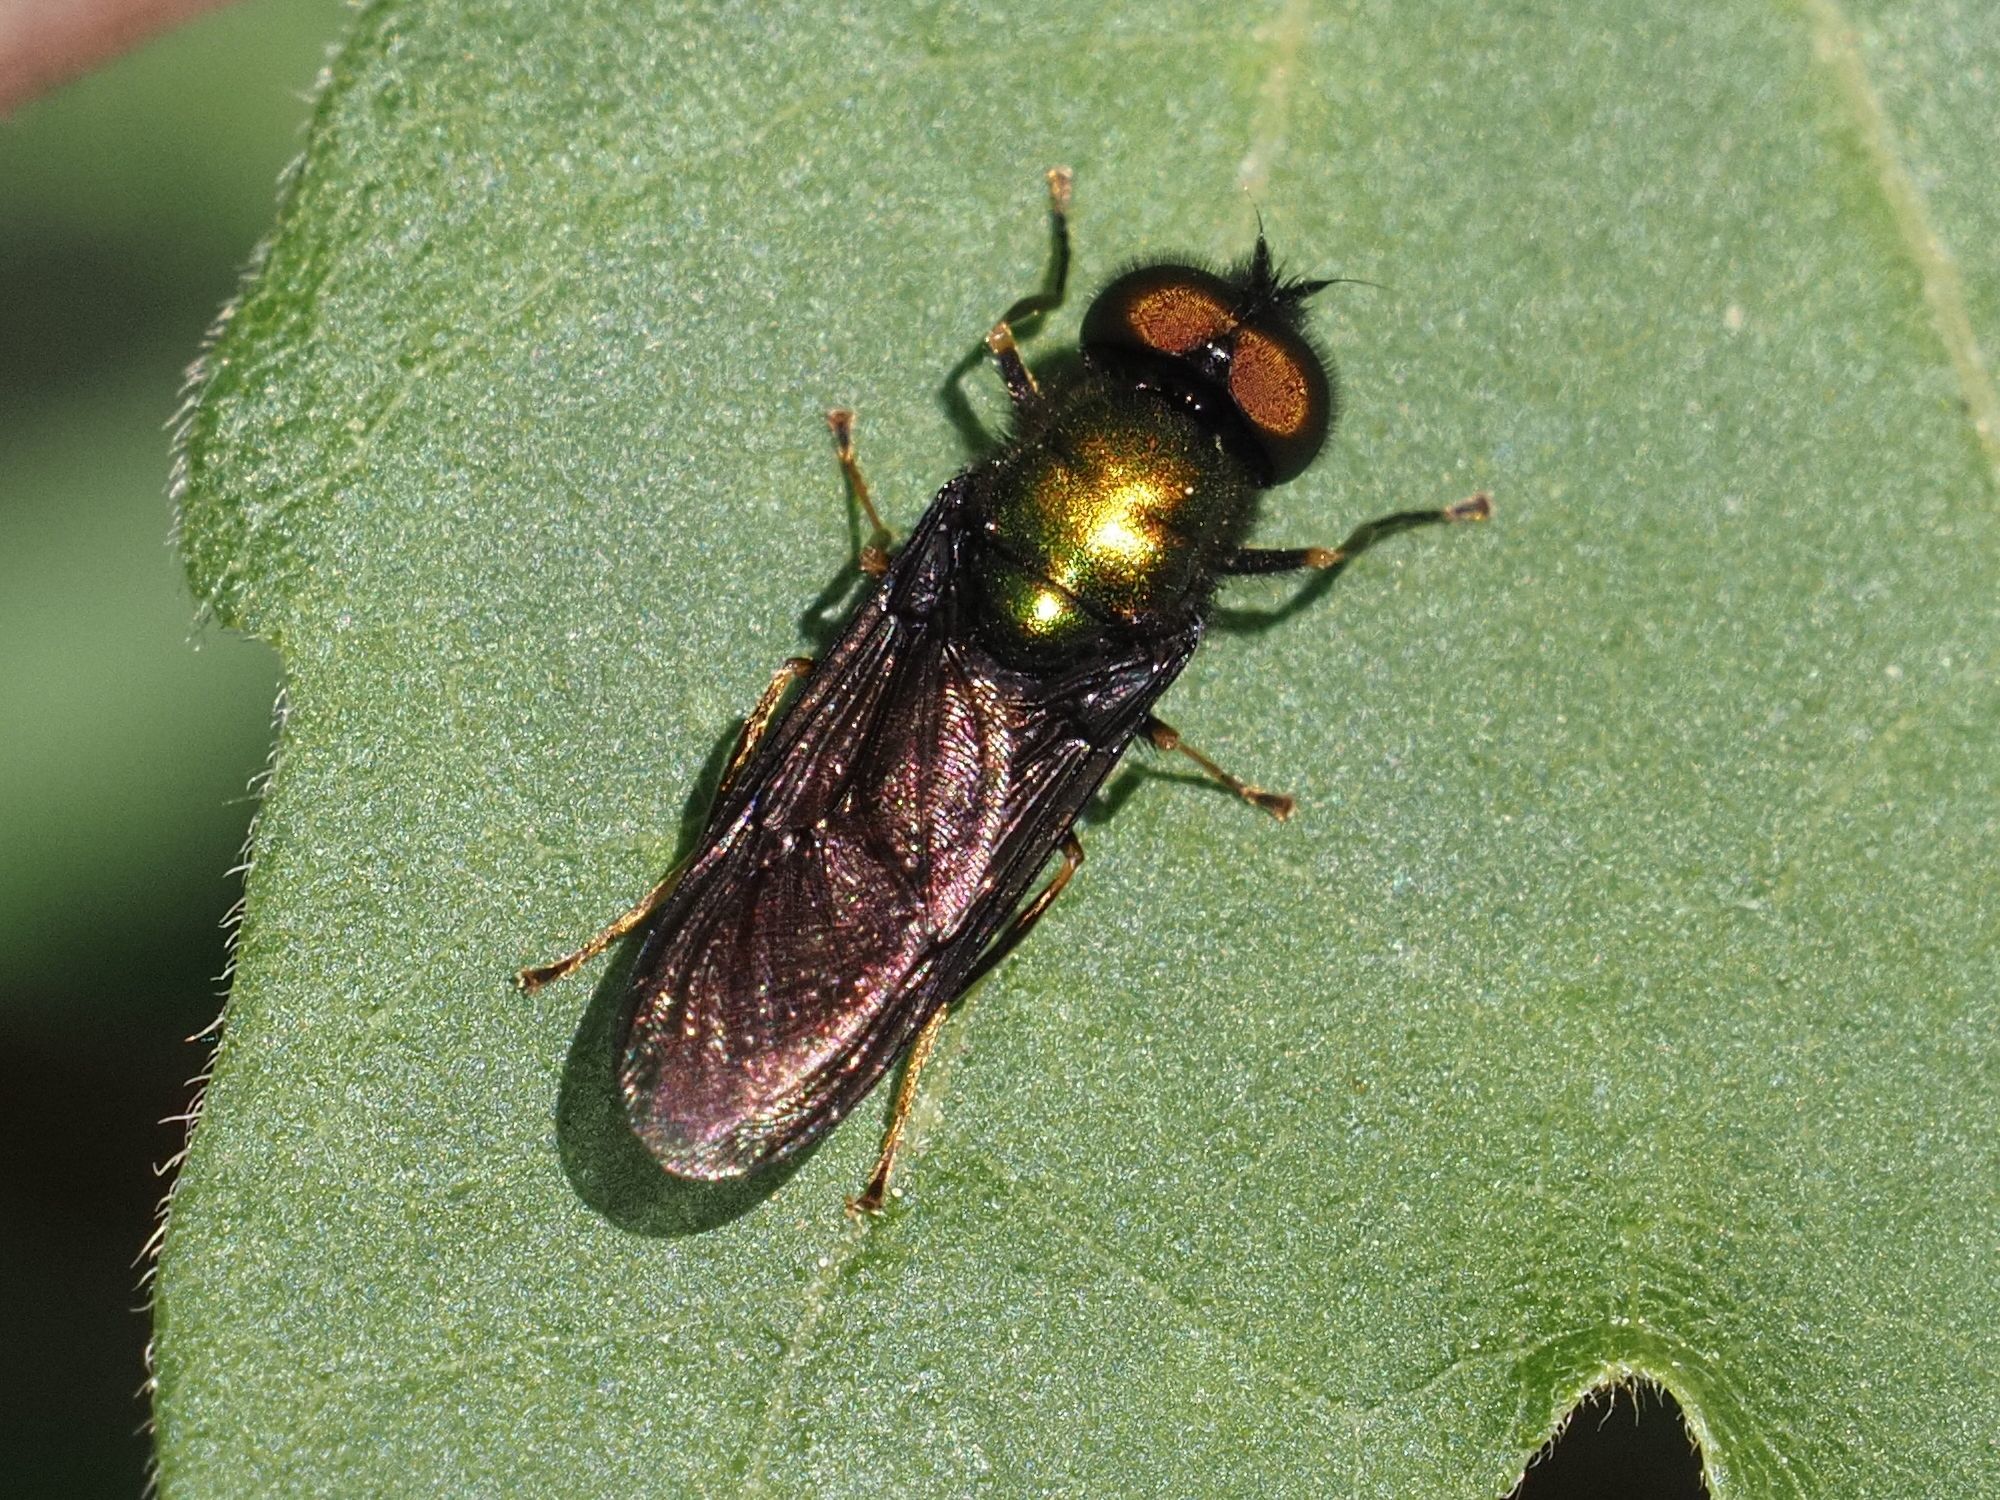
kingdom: Animalia
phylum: Arthropoda
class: Insecta
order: Diptera
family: Stratiomyidae
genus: Chloromyia
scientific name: Chloromyia formosa
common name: Soldier fly
